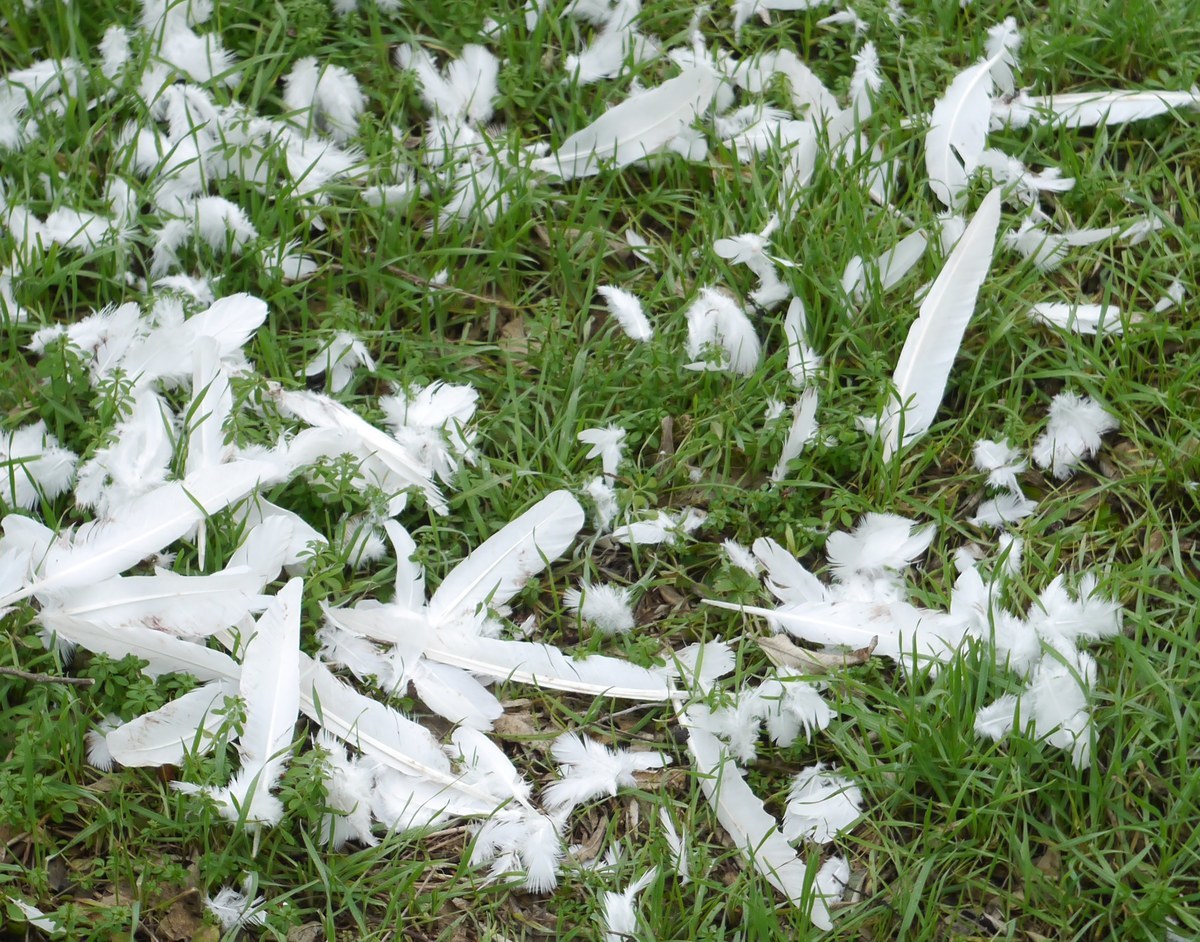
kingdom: Animalia
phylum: Chordata
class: Aves
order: Columbiformes
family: Columbidae
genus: Columba
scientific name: Columba livia
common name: Rock pigeon
